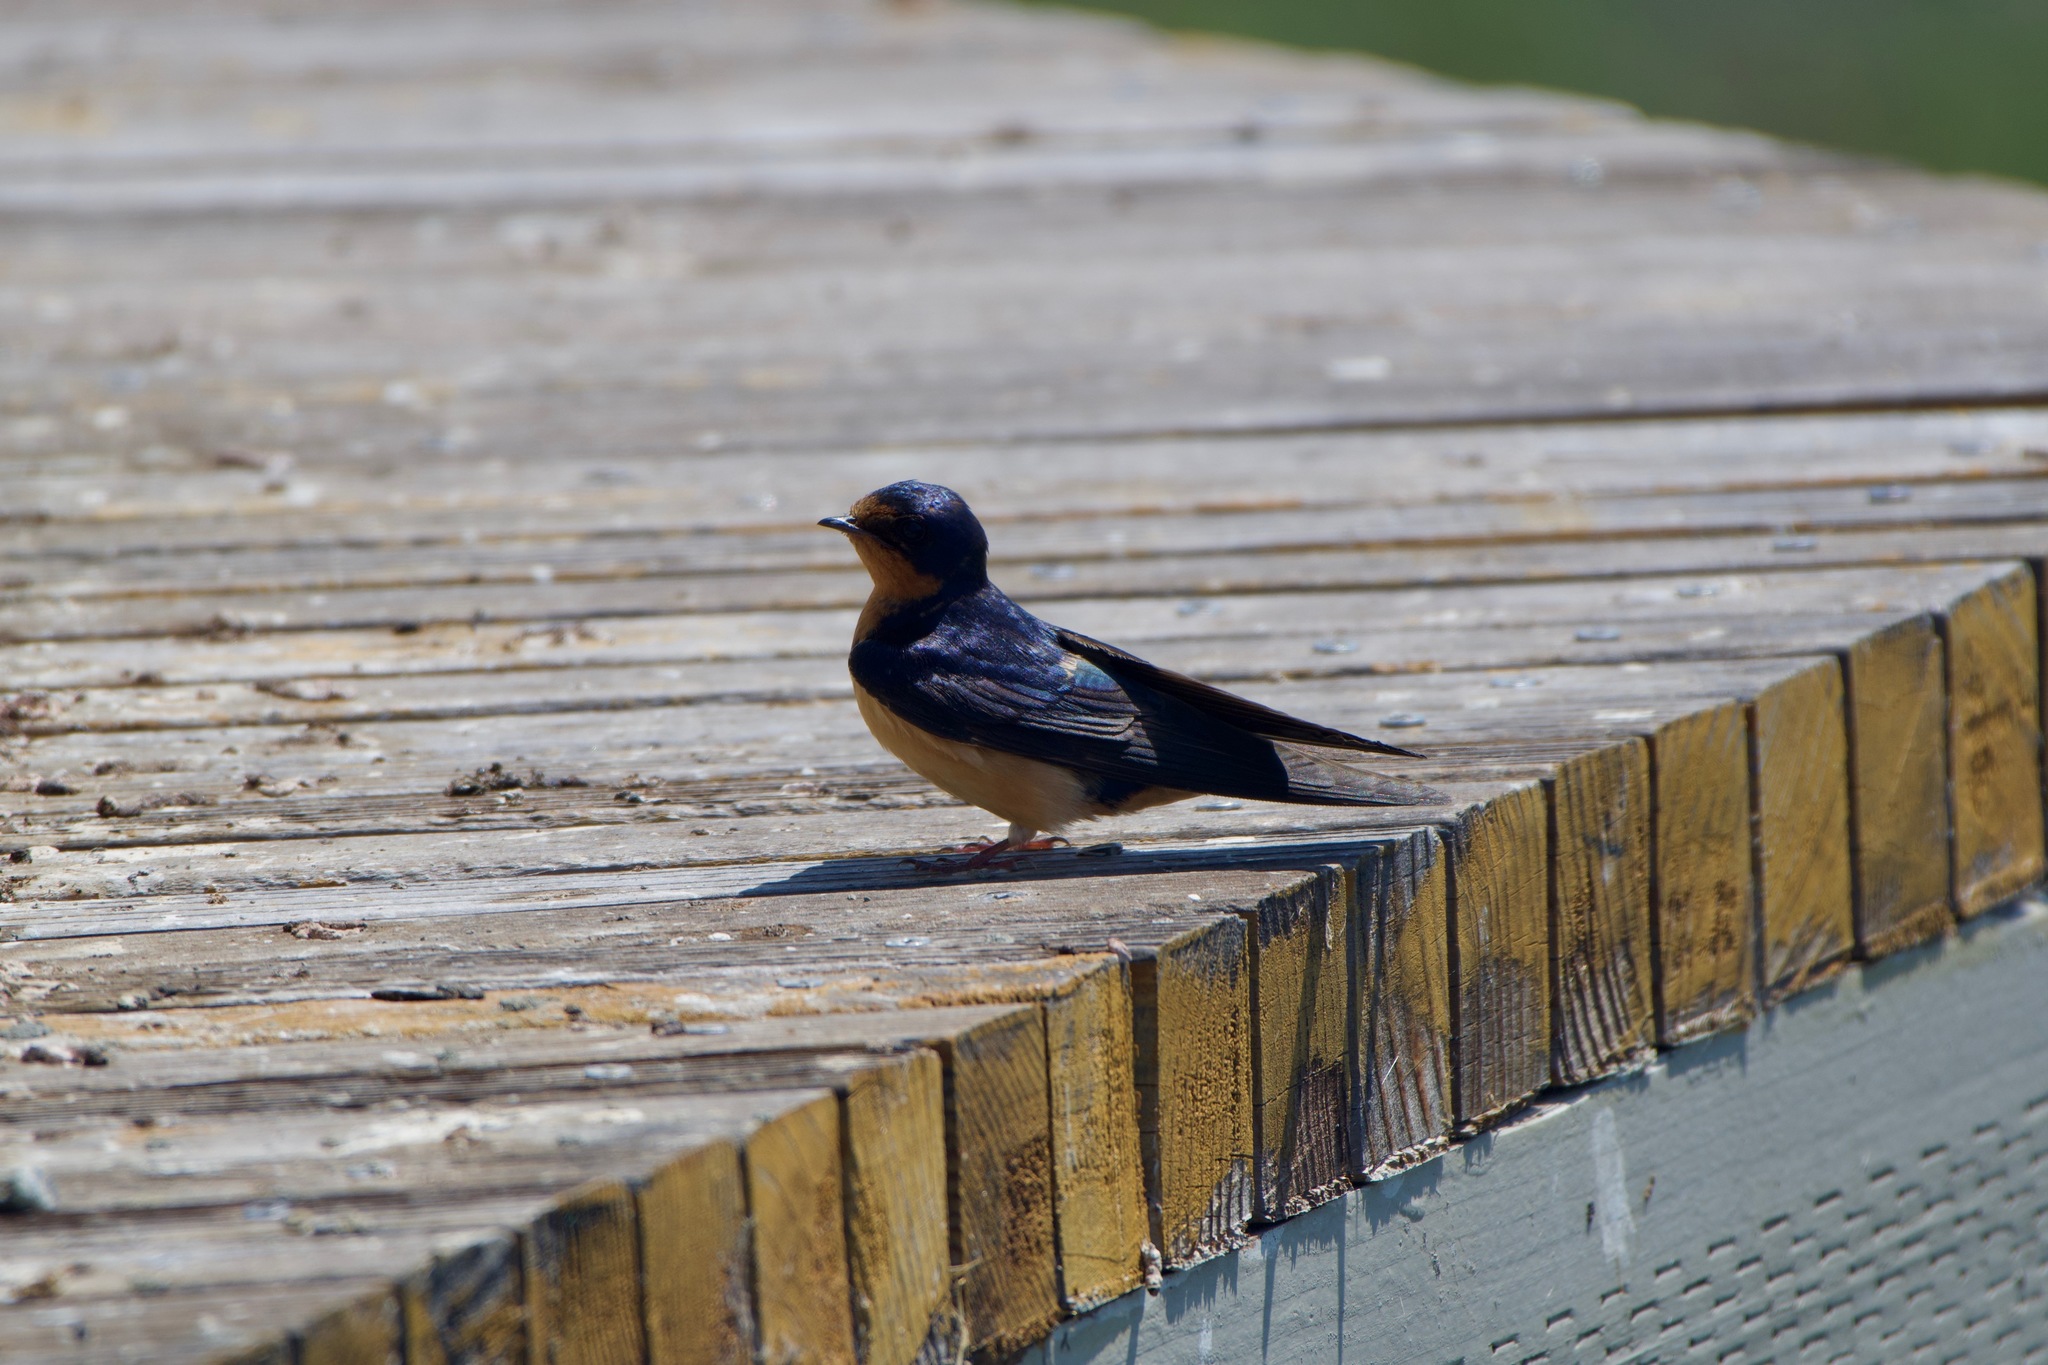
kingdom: Animalia
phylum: Chordata
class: Aves
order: Passeriformes
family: Hirundinidae
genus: Hirundo
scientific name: Hirundo rustica
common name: Barn swallow
